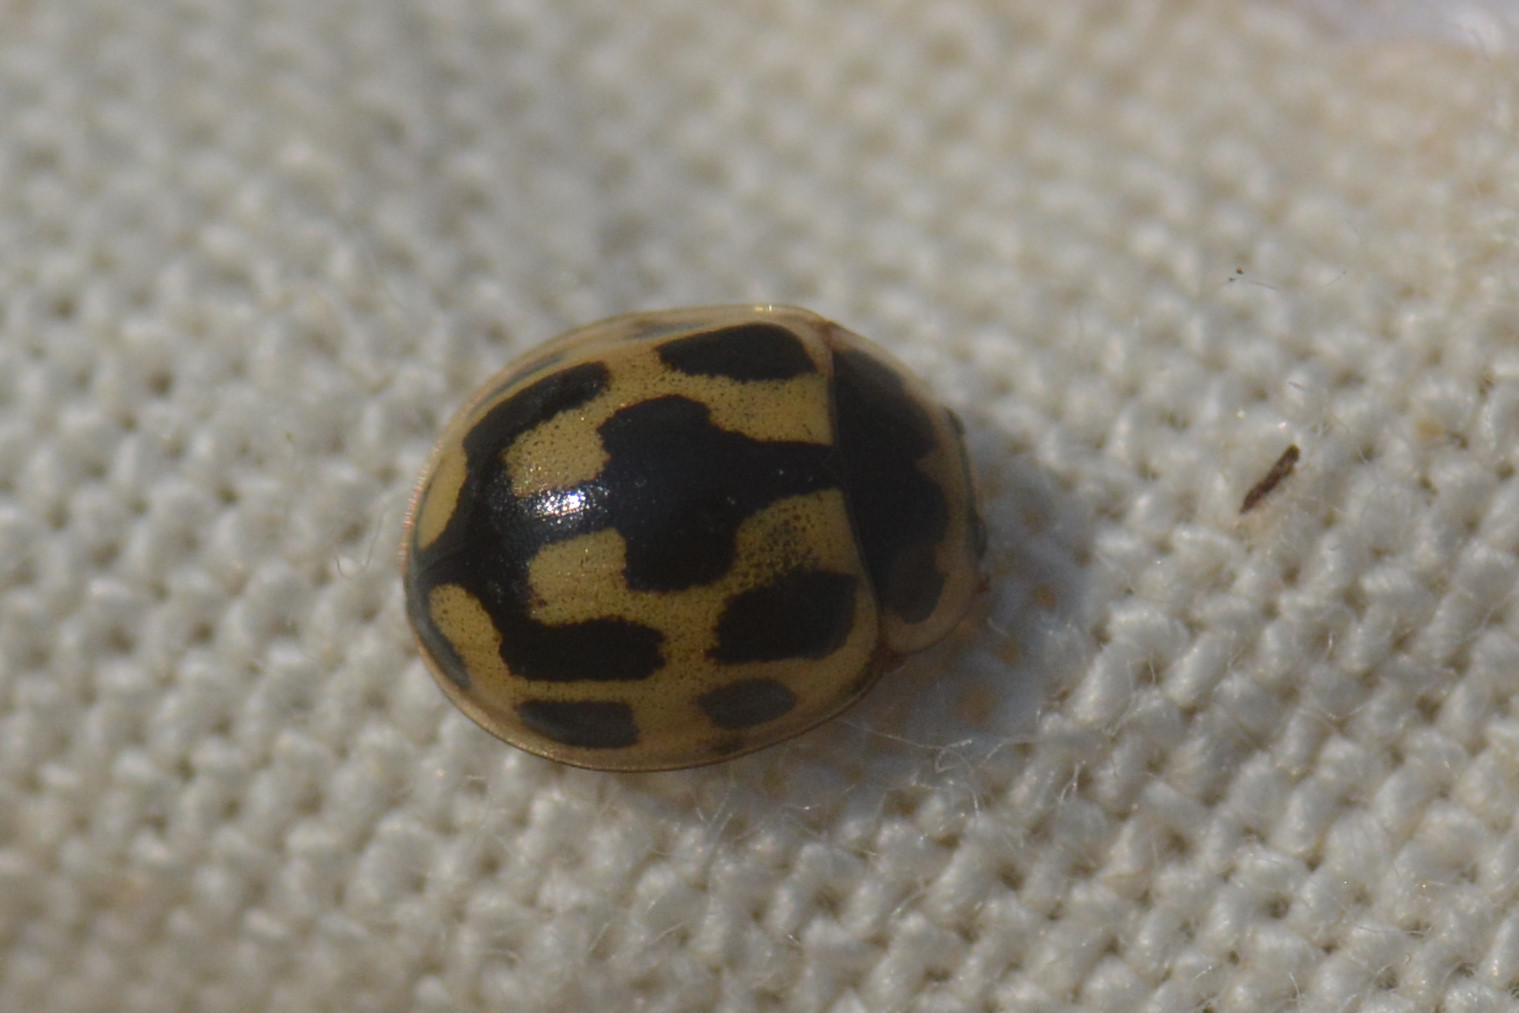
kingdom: Animalia
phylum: Arthropoda
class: Insecta
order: Coleoptera
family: Coccinellidae
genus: Propylaea
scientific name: Propylaea quatuordecimpunctata
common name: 14-spotted ladybird beetle
